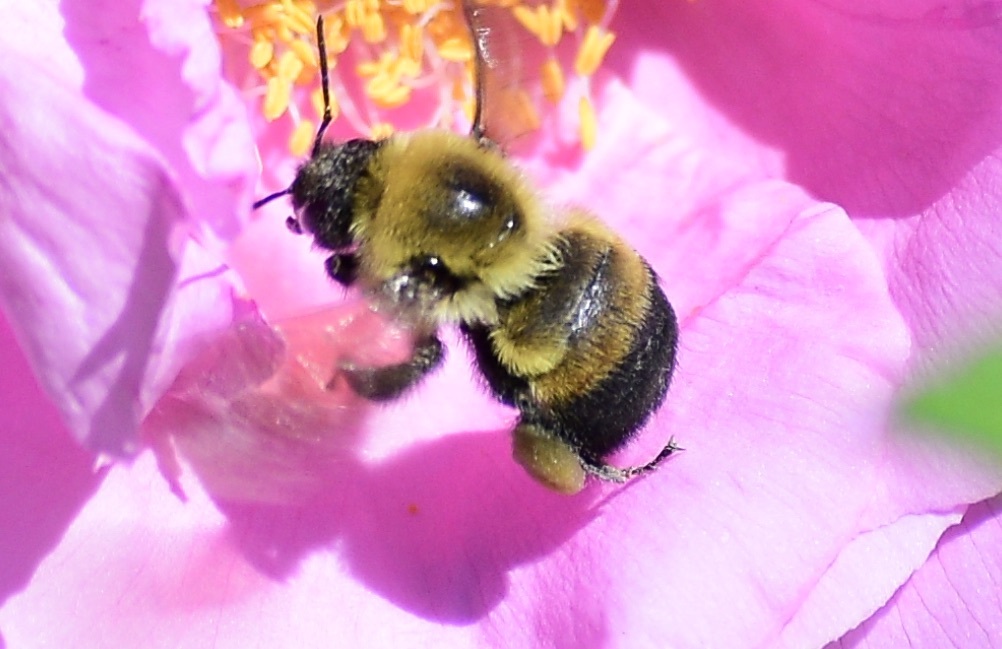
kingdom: Animalia
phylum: Arthropoda
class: Insecta
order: Hymenoptera
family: Apidae
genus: Bombus
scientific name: Bombus griseocollis
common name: Brown-belted bumble bee
